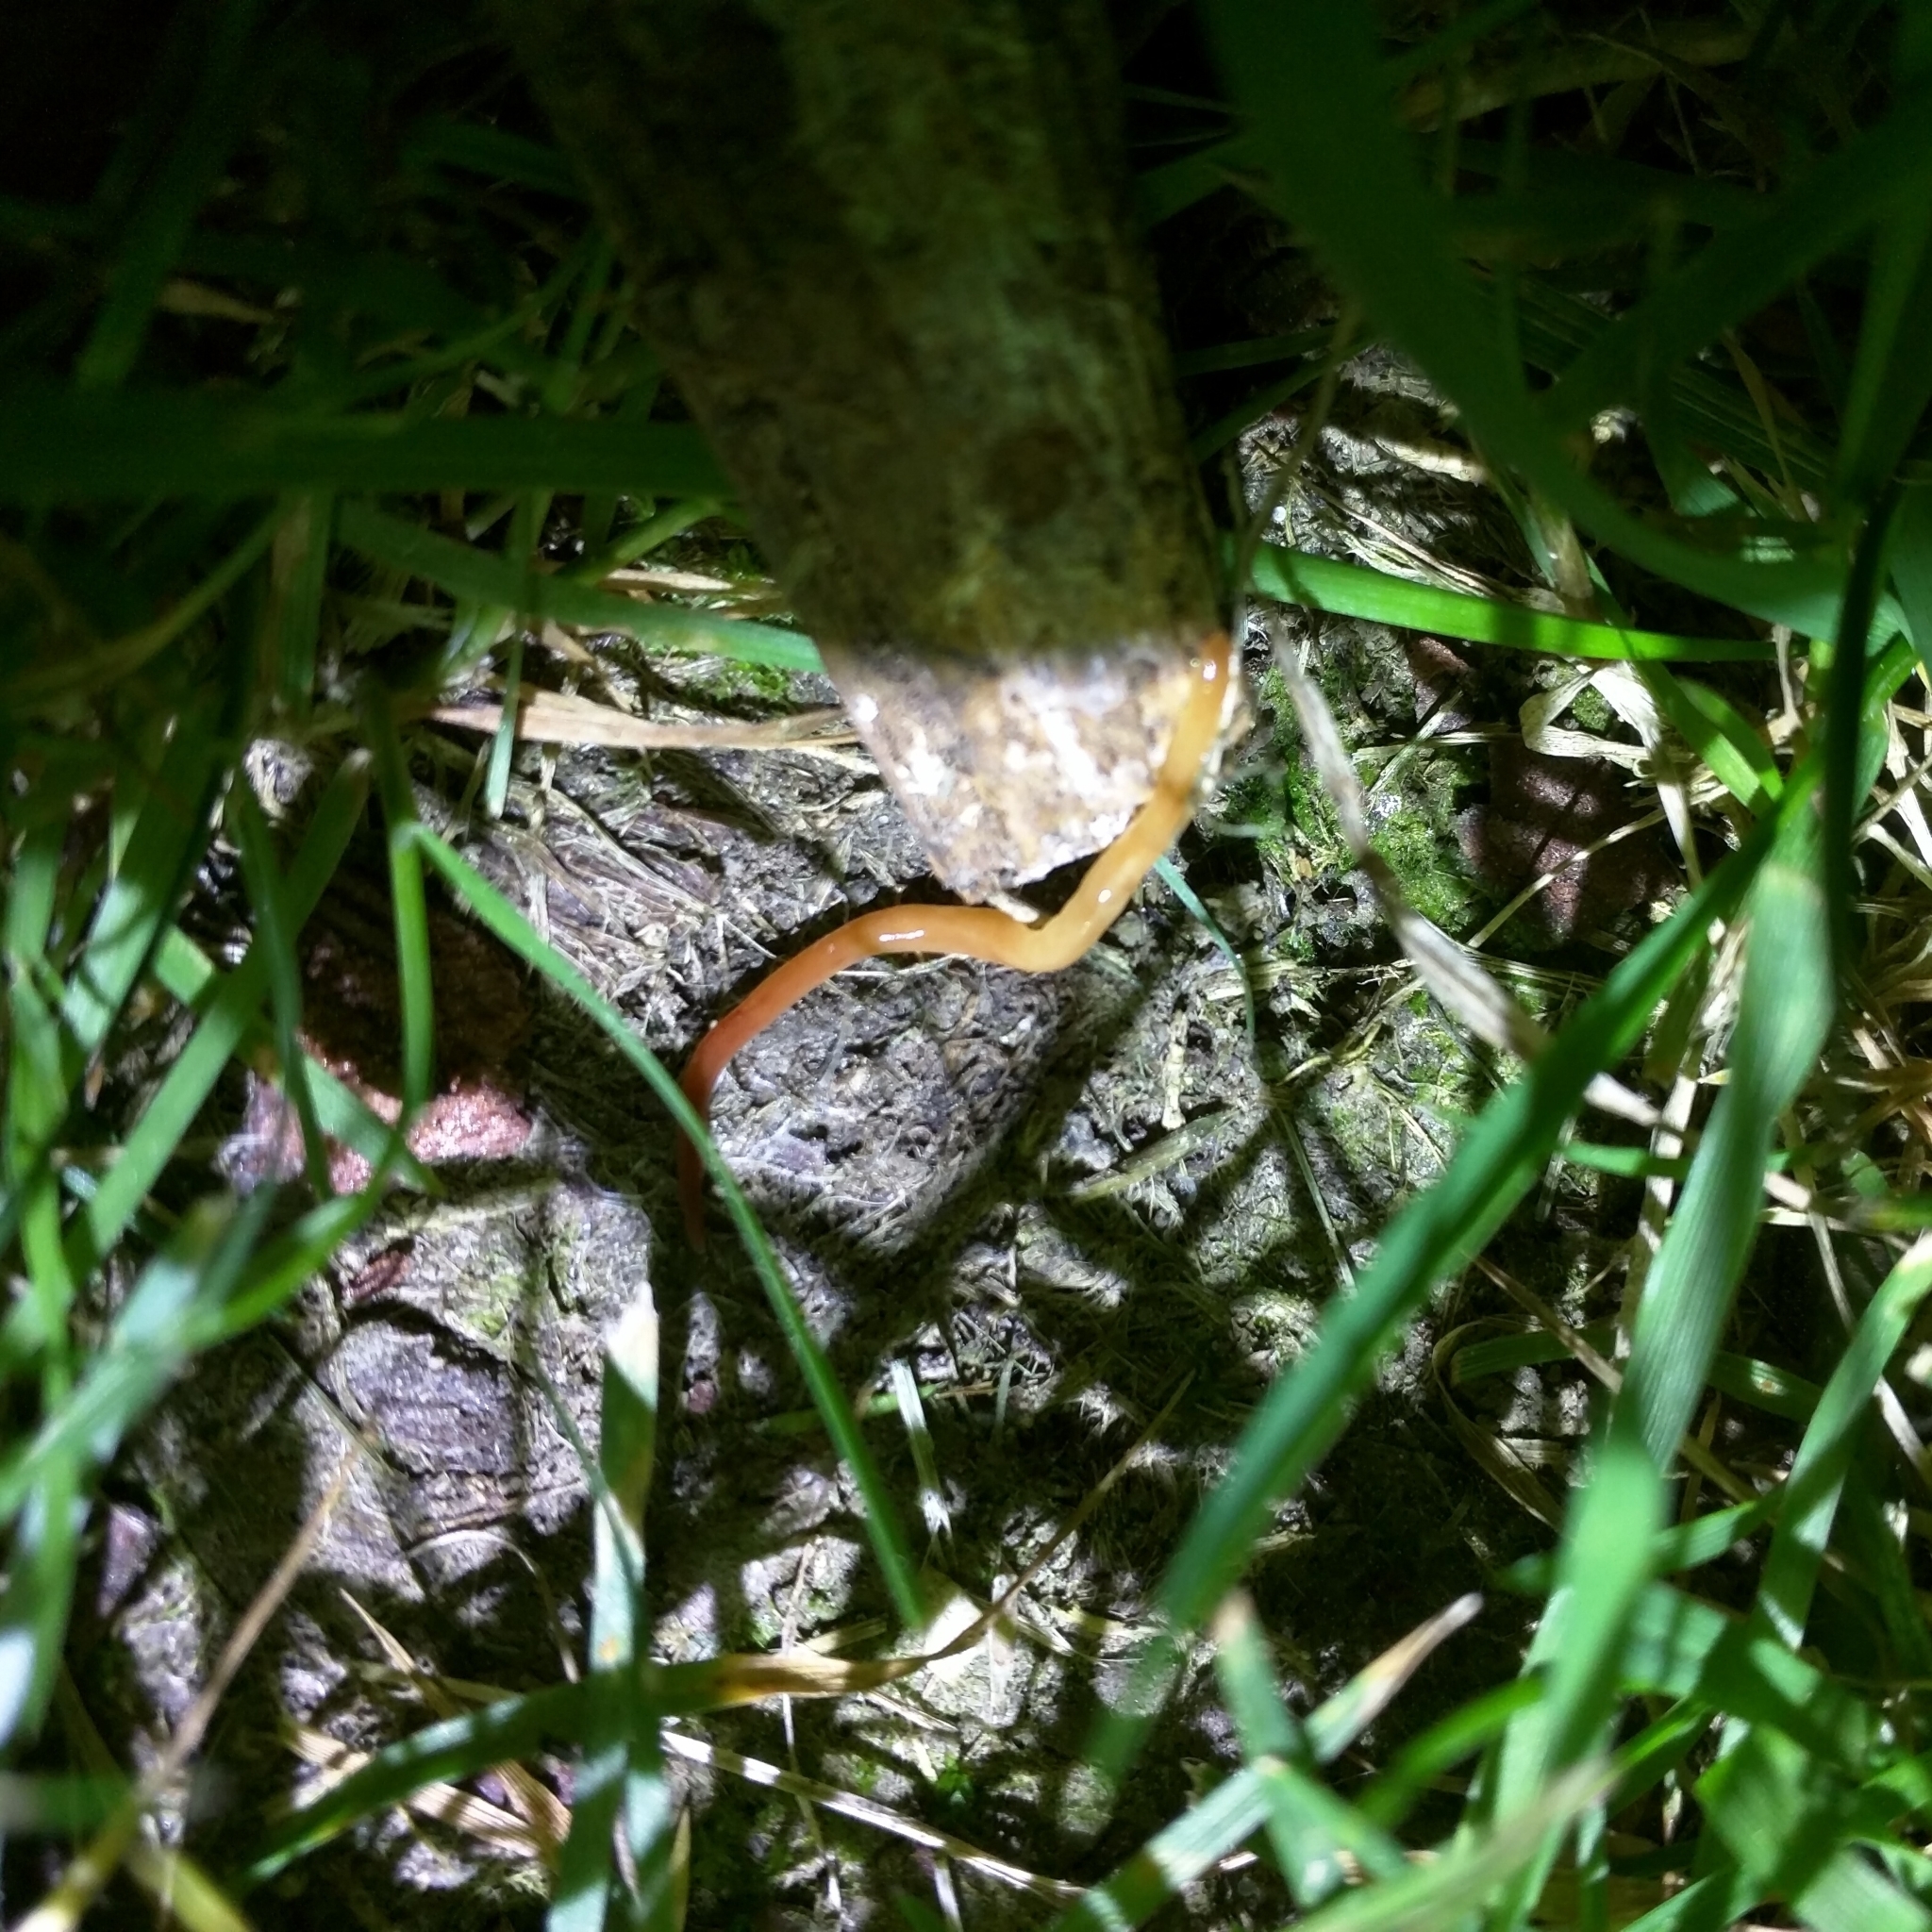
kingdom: Animalia
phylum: Platyhelminthes
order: Tricladida
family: Geoplanidae
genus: Australoplana
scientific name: Australoplana sanguinea
